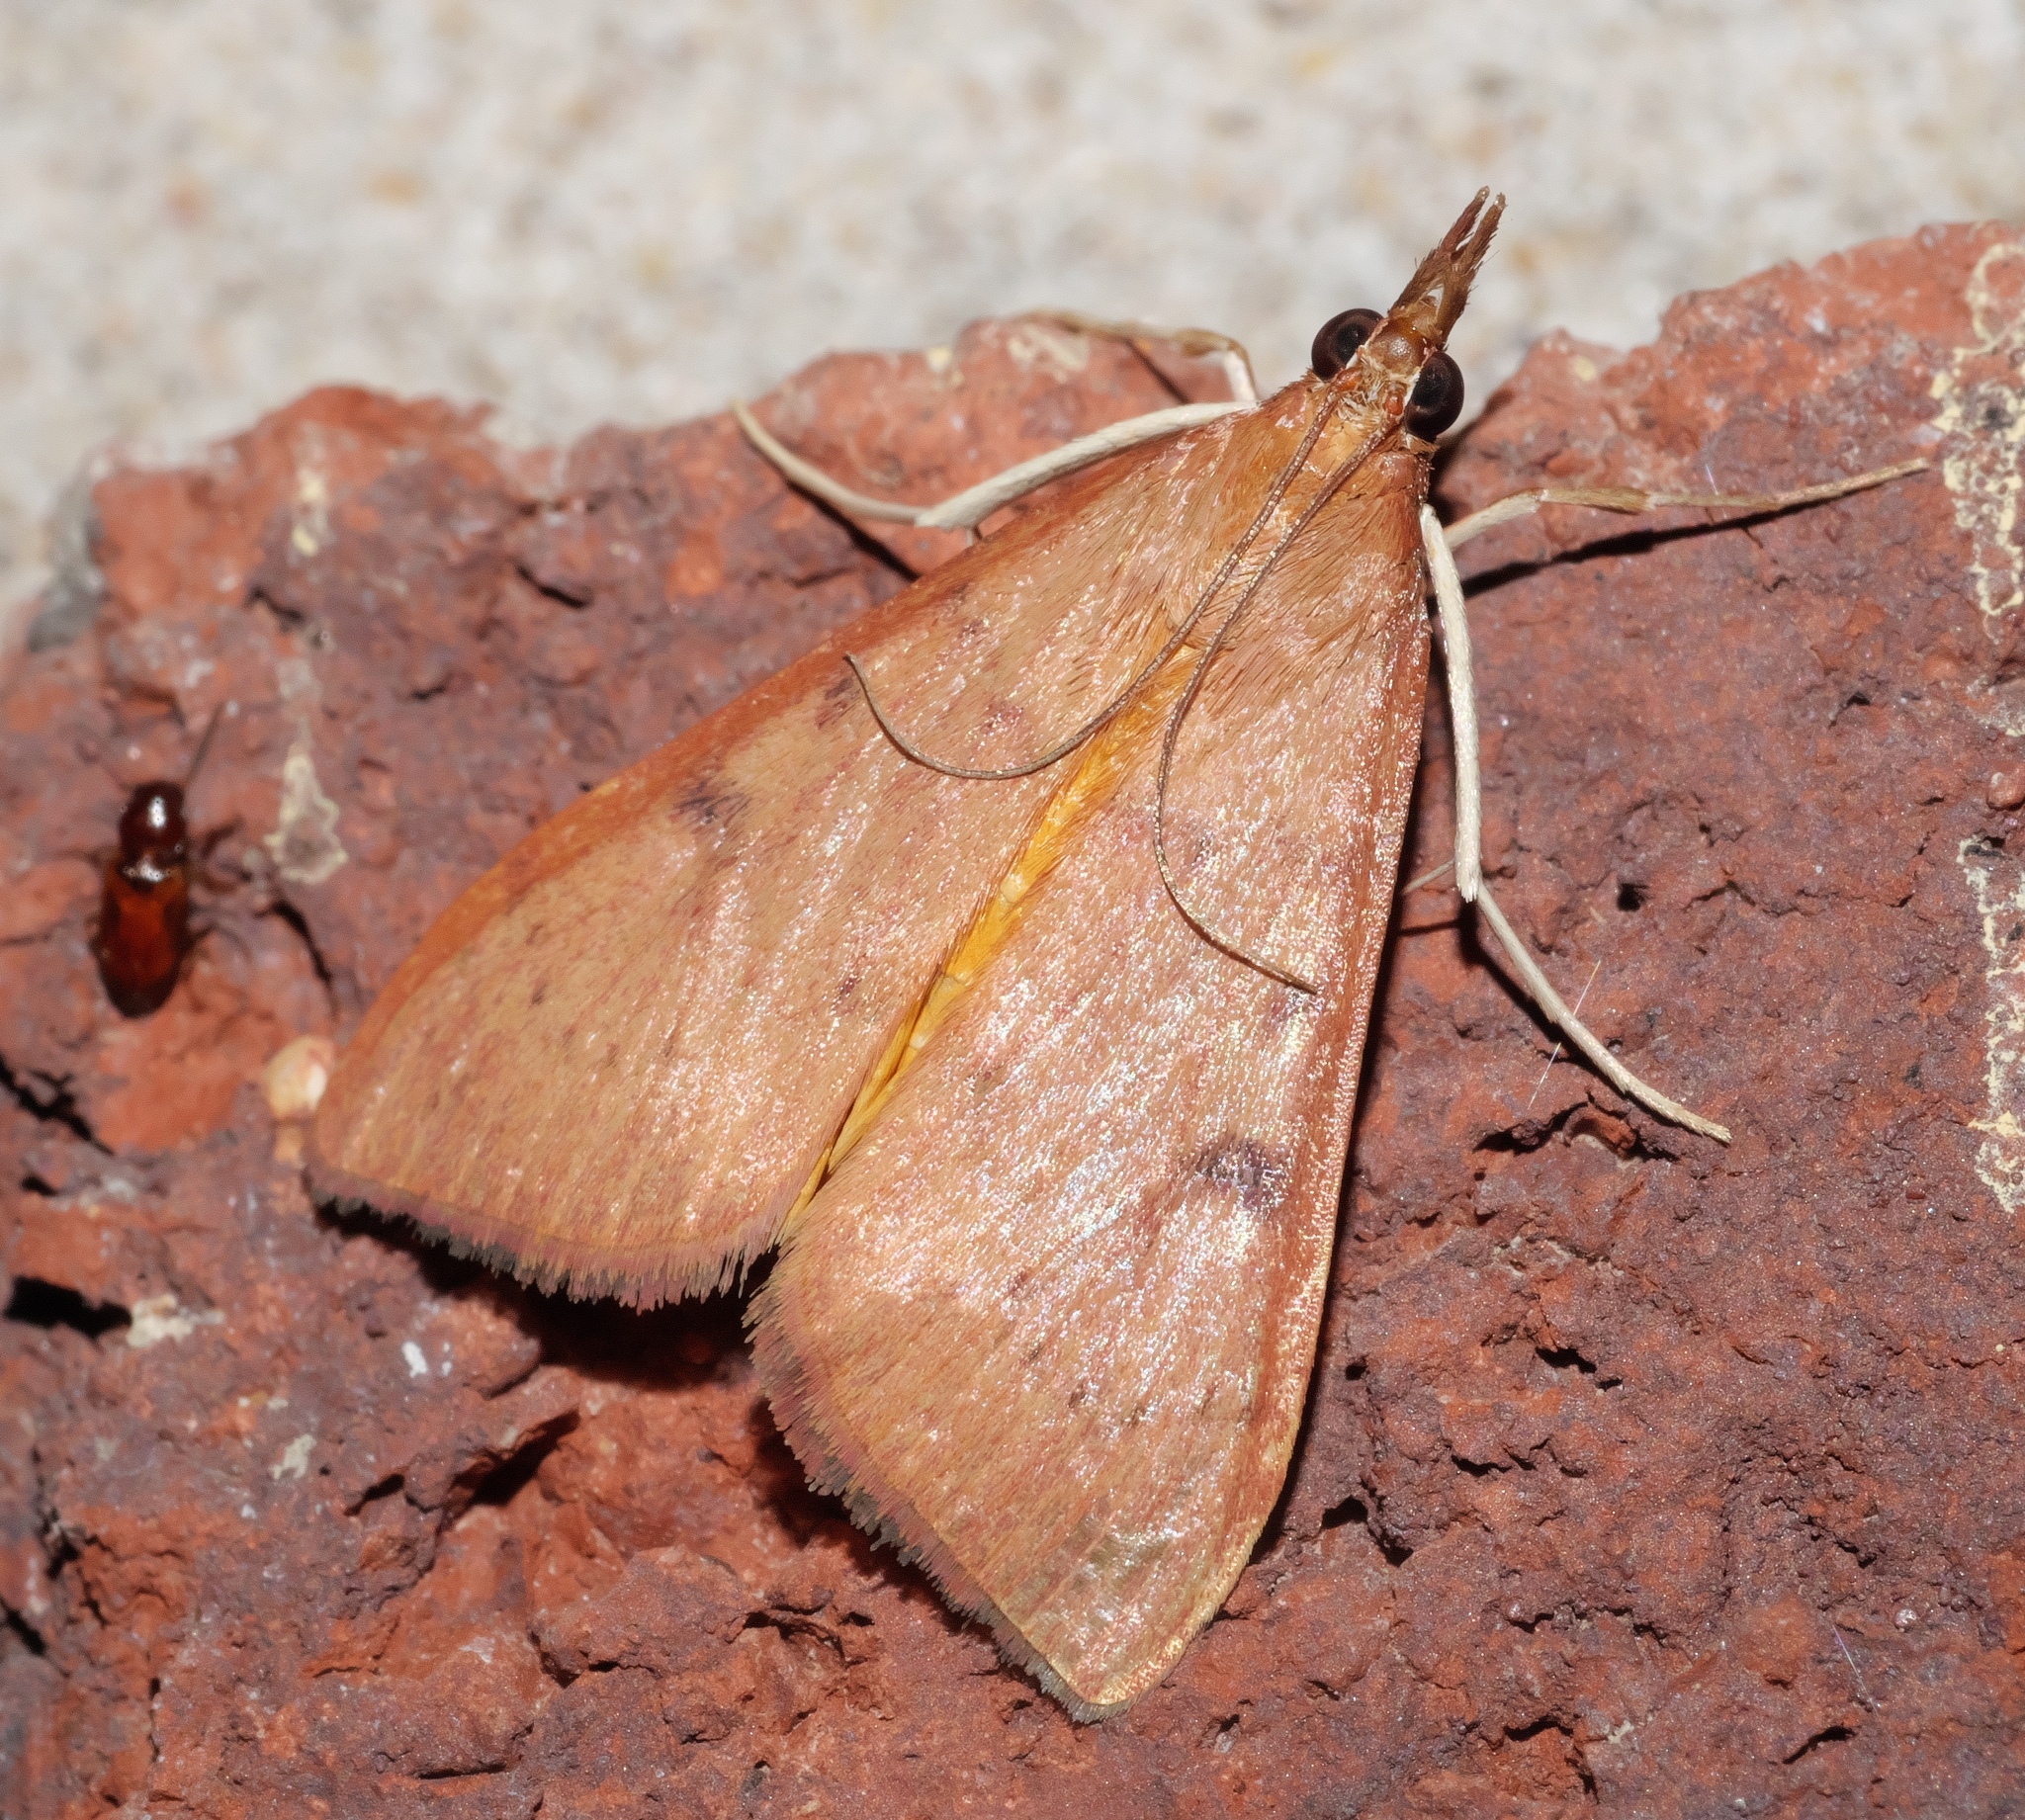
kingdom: Animalia
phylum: Arthropoda
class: Insecta
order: Lepidoptera
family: Crambidae
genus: Uresiphita
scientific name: Uresiphita reversalis
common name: Genista broom moth
